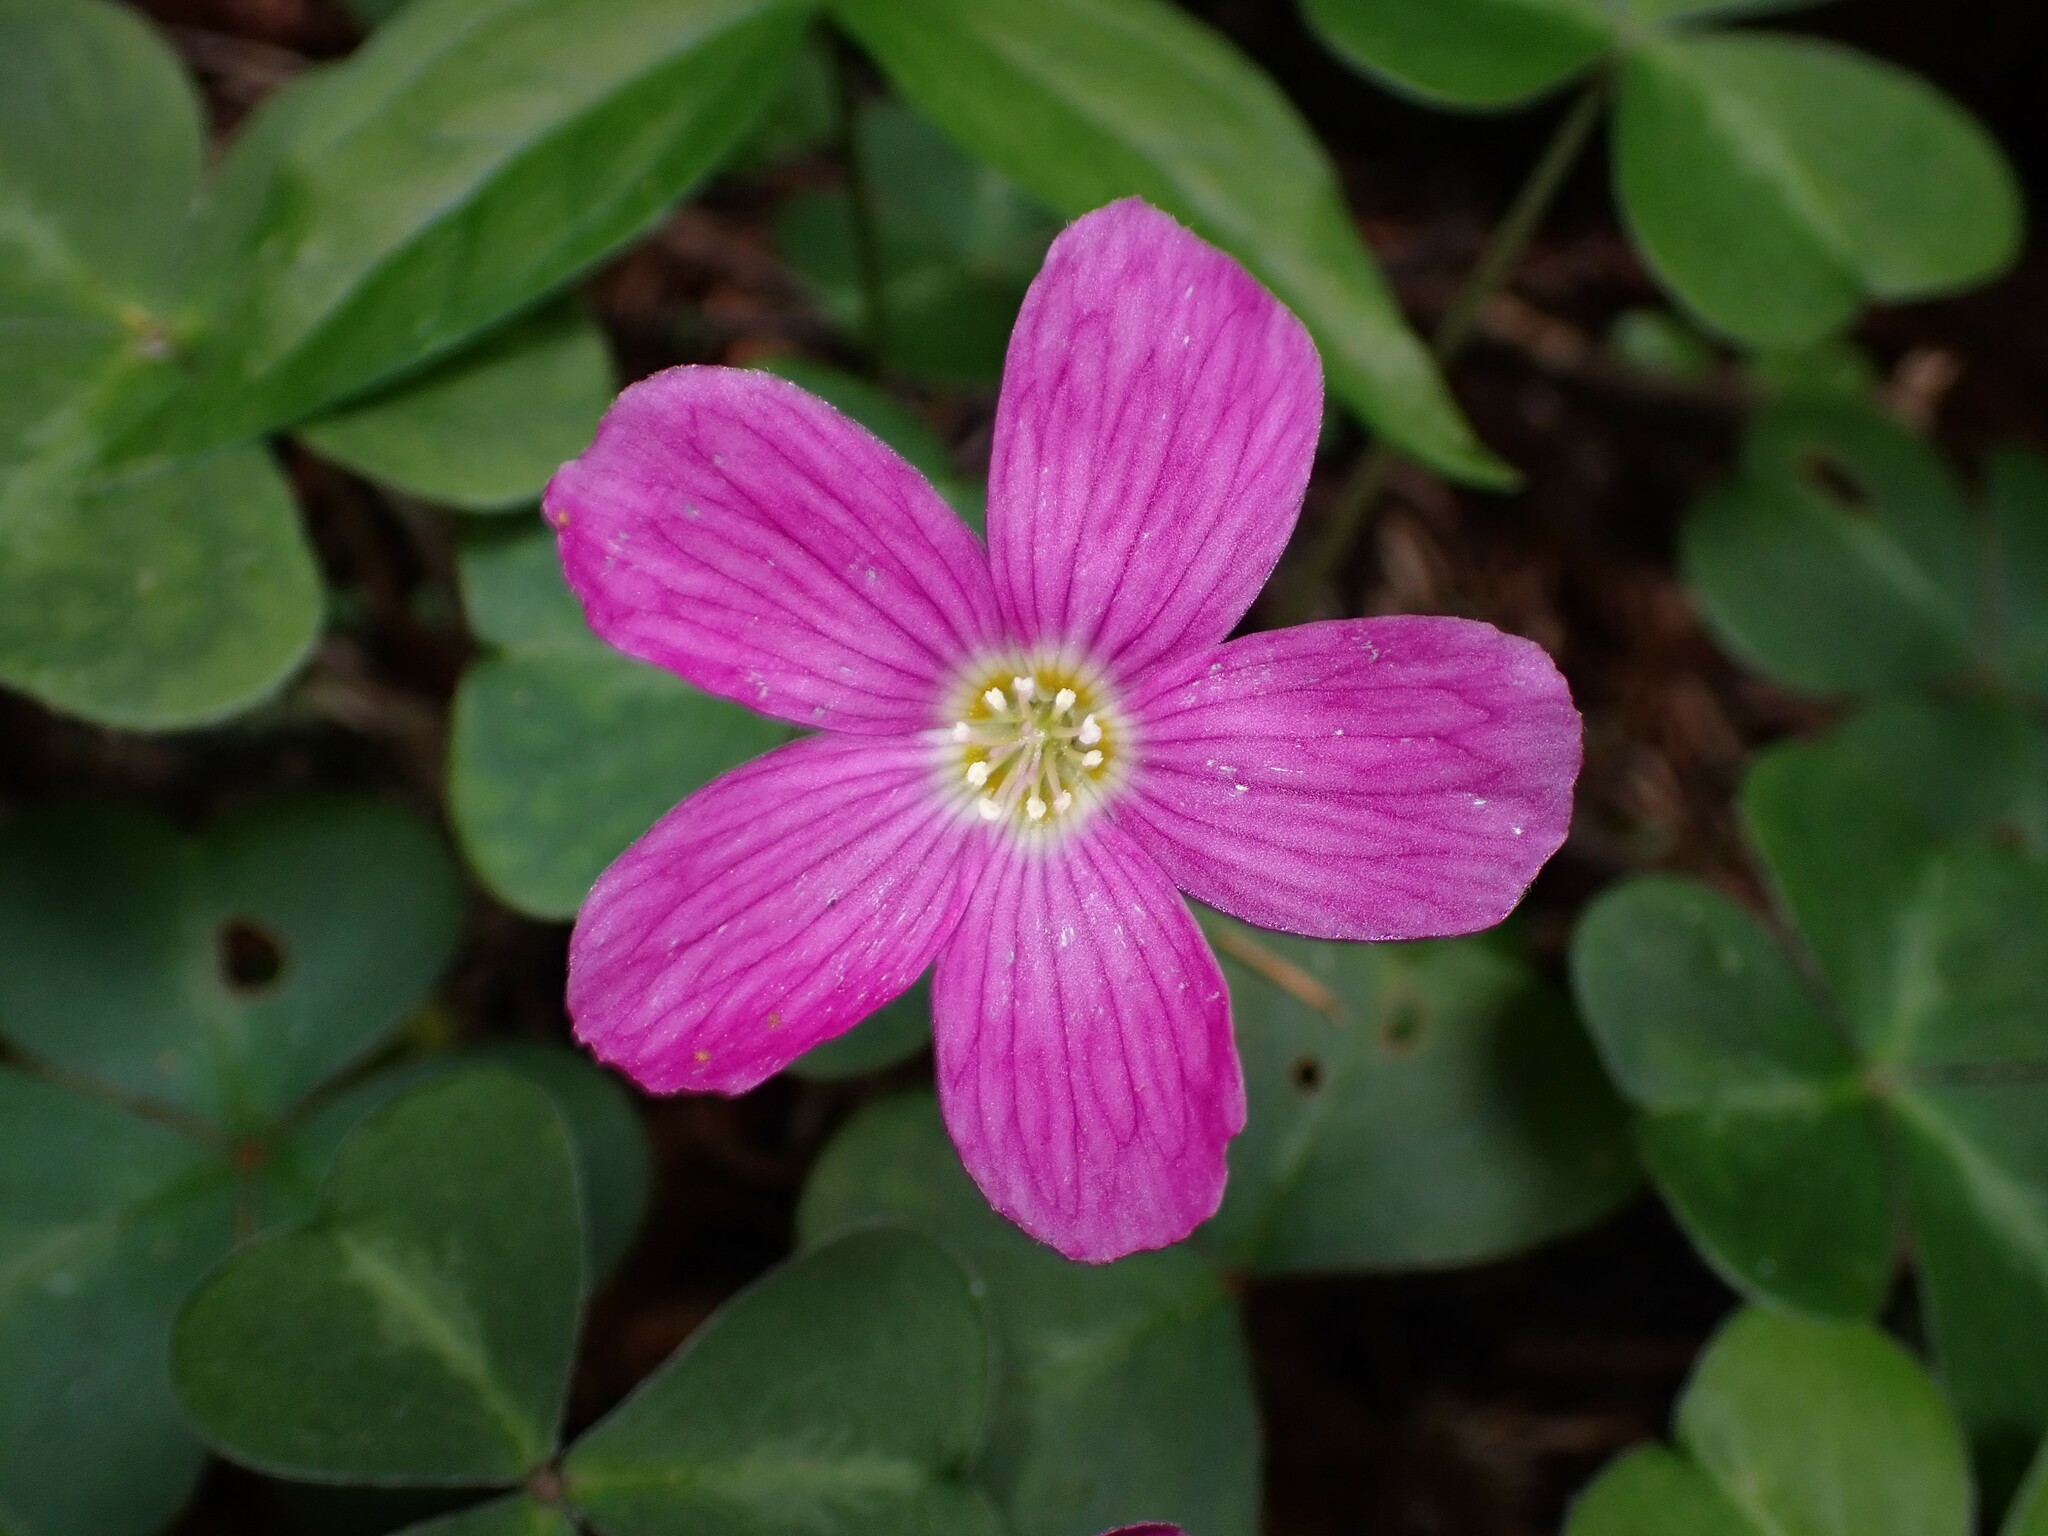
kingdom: Plantae
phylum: Tracheophyta
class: Magnoliopsida
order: Oxalidales
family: Oxalidaceae
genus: Oxalis
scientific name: Oxalis oregana
